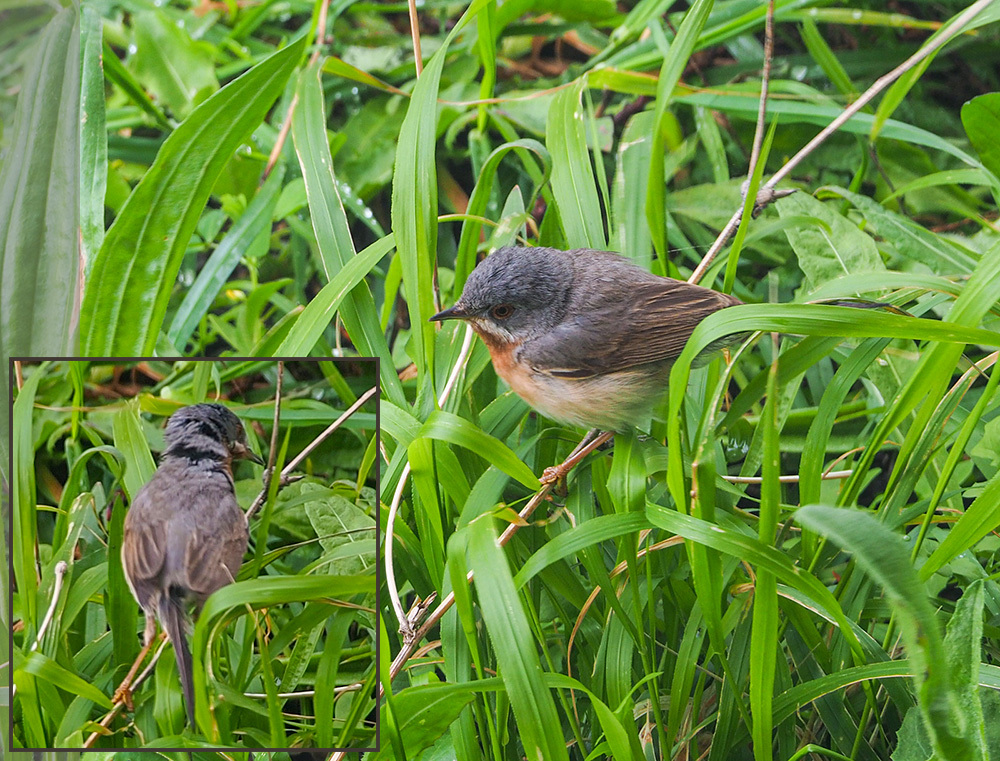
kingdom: Animalia
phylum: Chordata
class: Aves
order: Passeriformes
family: Sylviidae
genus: Curruca
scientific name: Curruca cantillans
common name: Subalpine warbler
